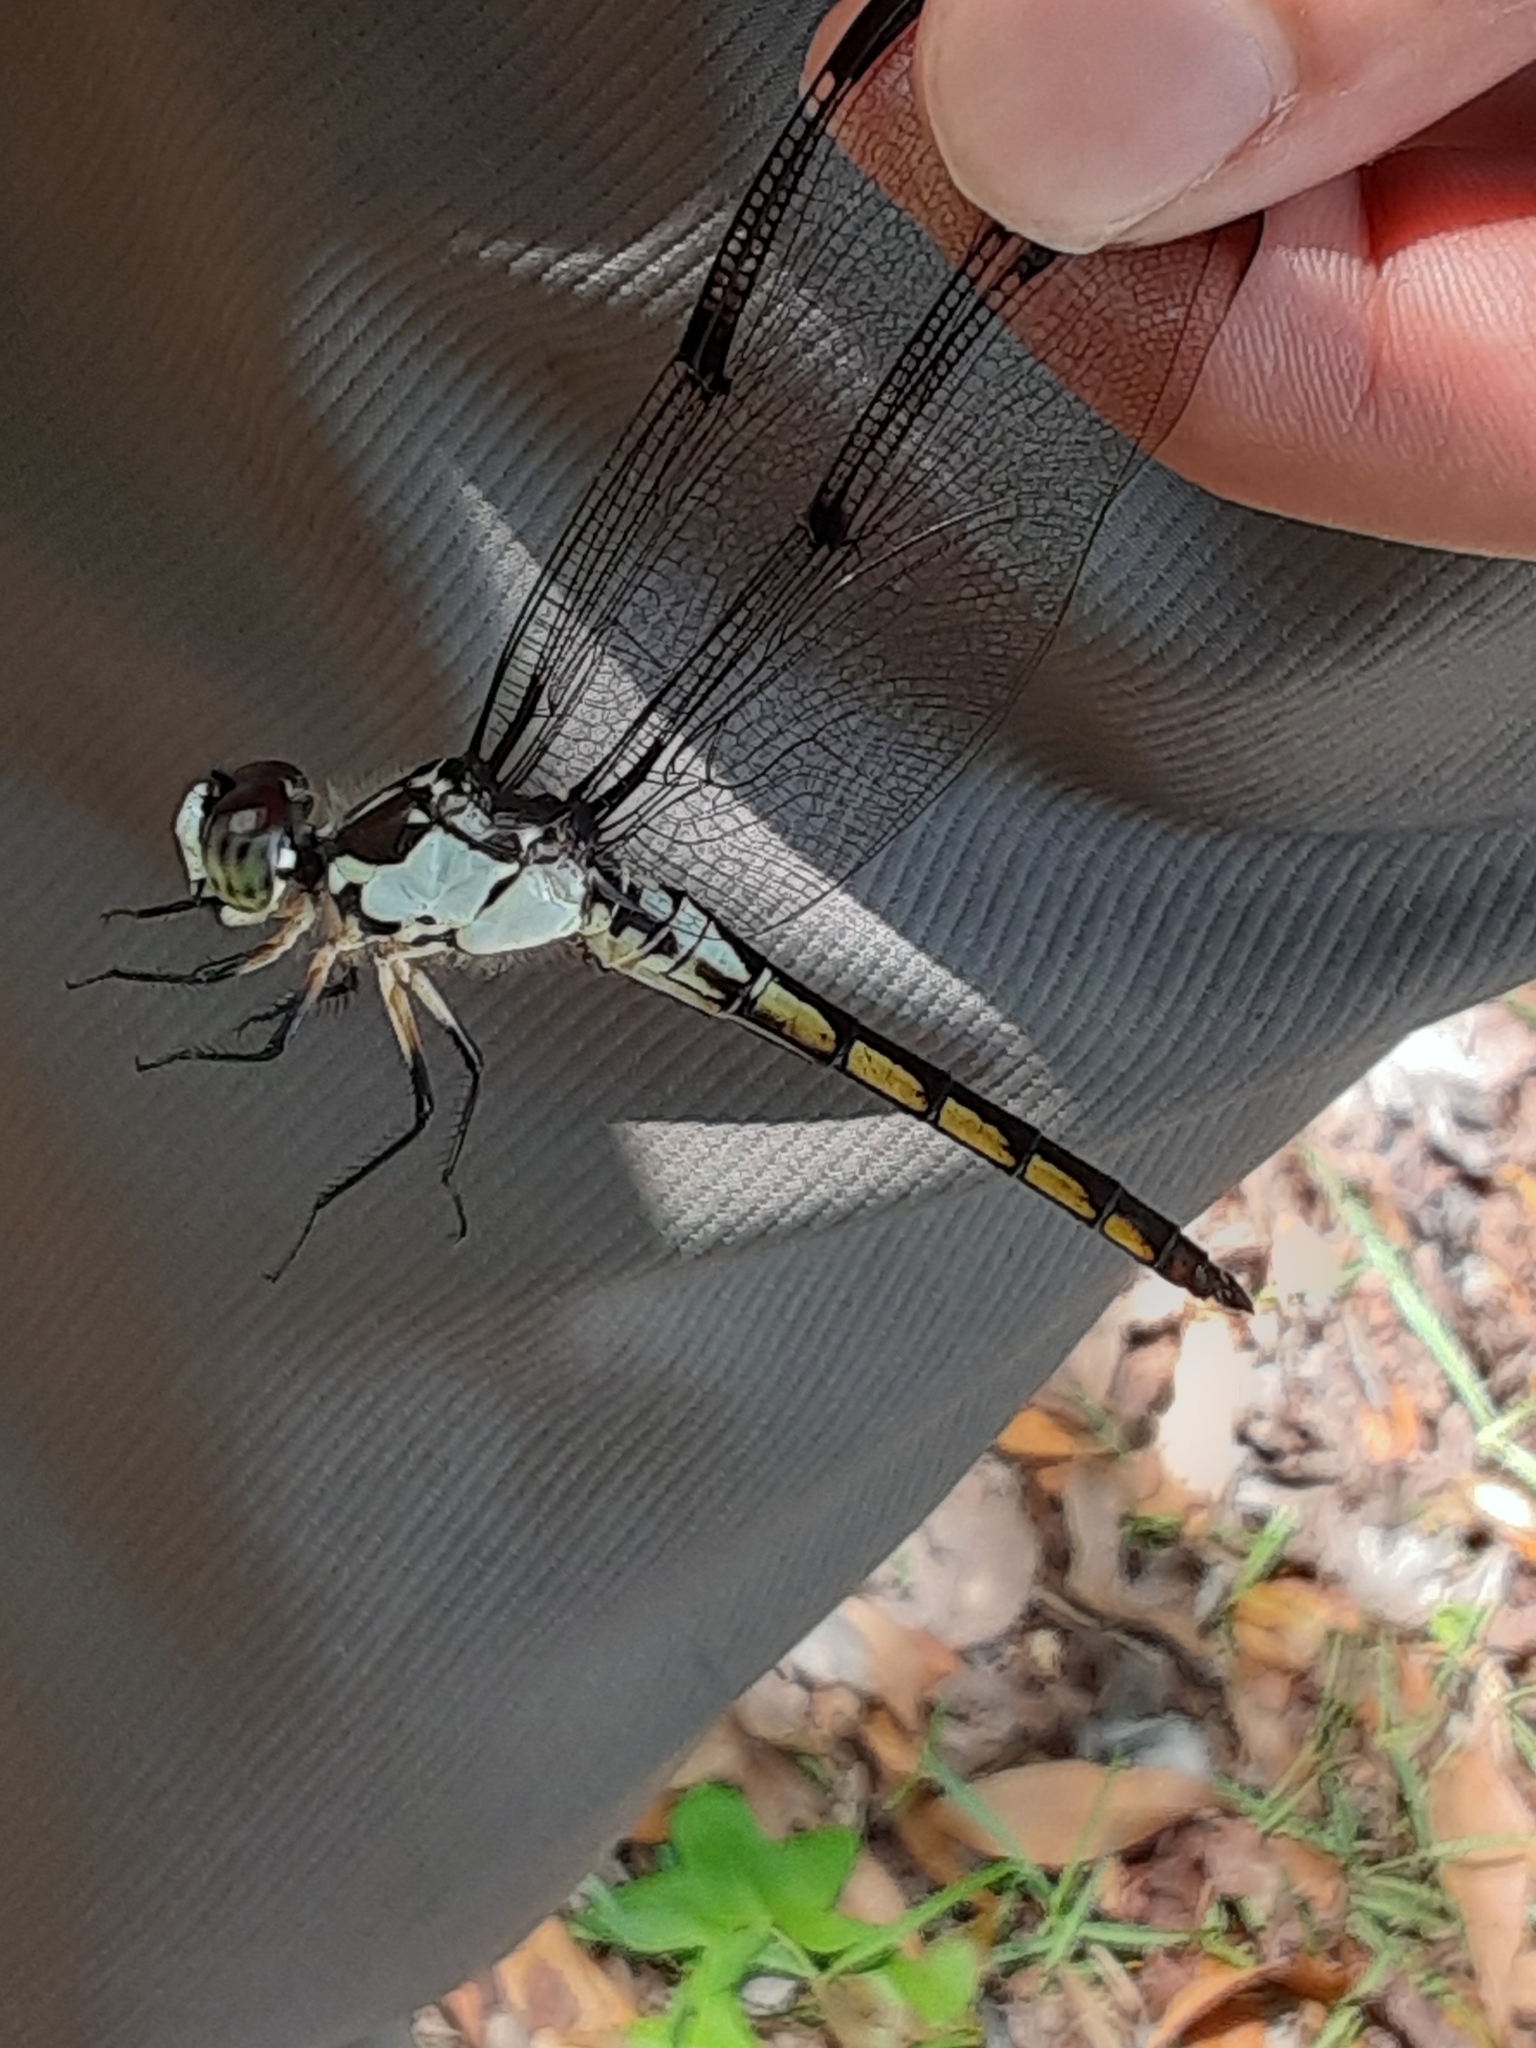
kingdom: Animalia
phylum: Arthropoda
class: Insecta
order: Odonata
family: Libellulidae
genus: Libellula
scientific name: Libellula vibrans
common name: Great blue skimmer
